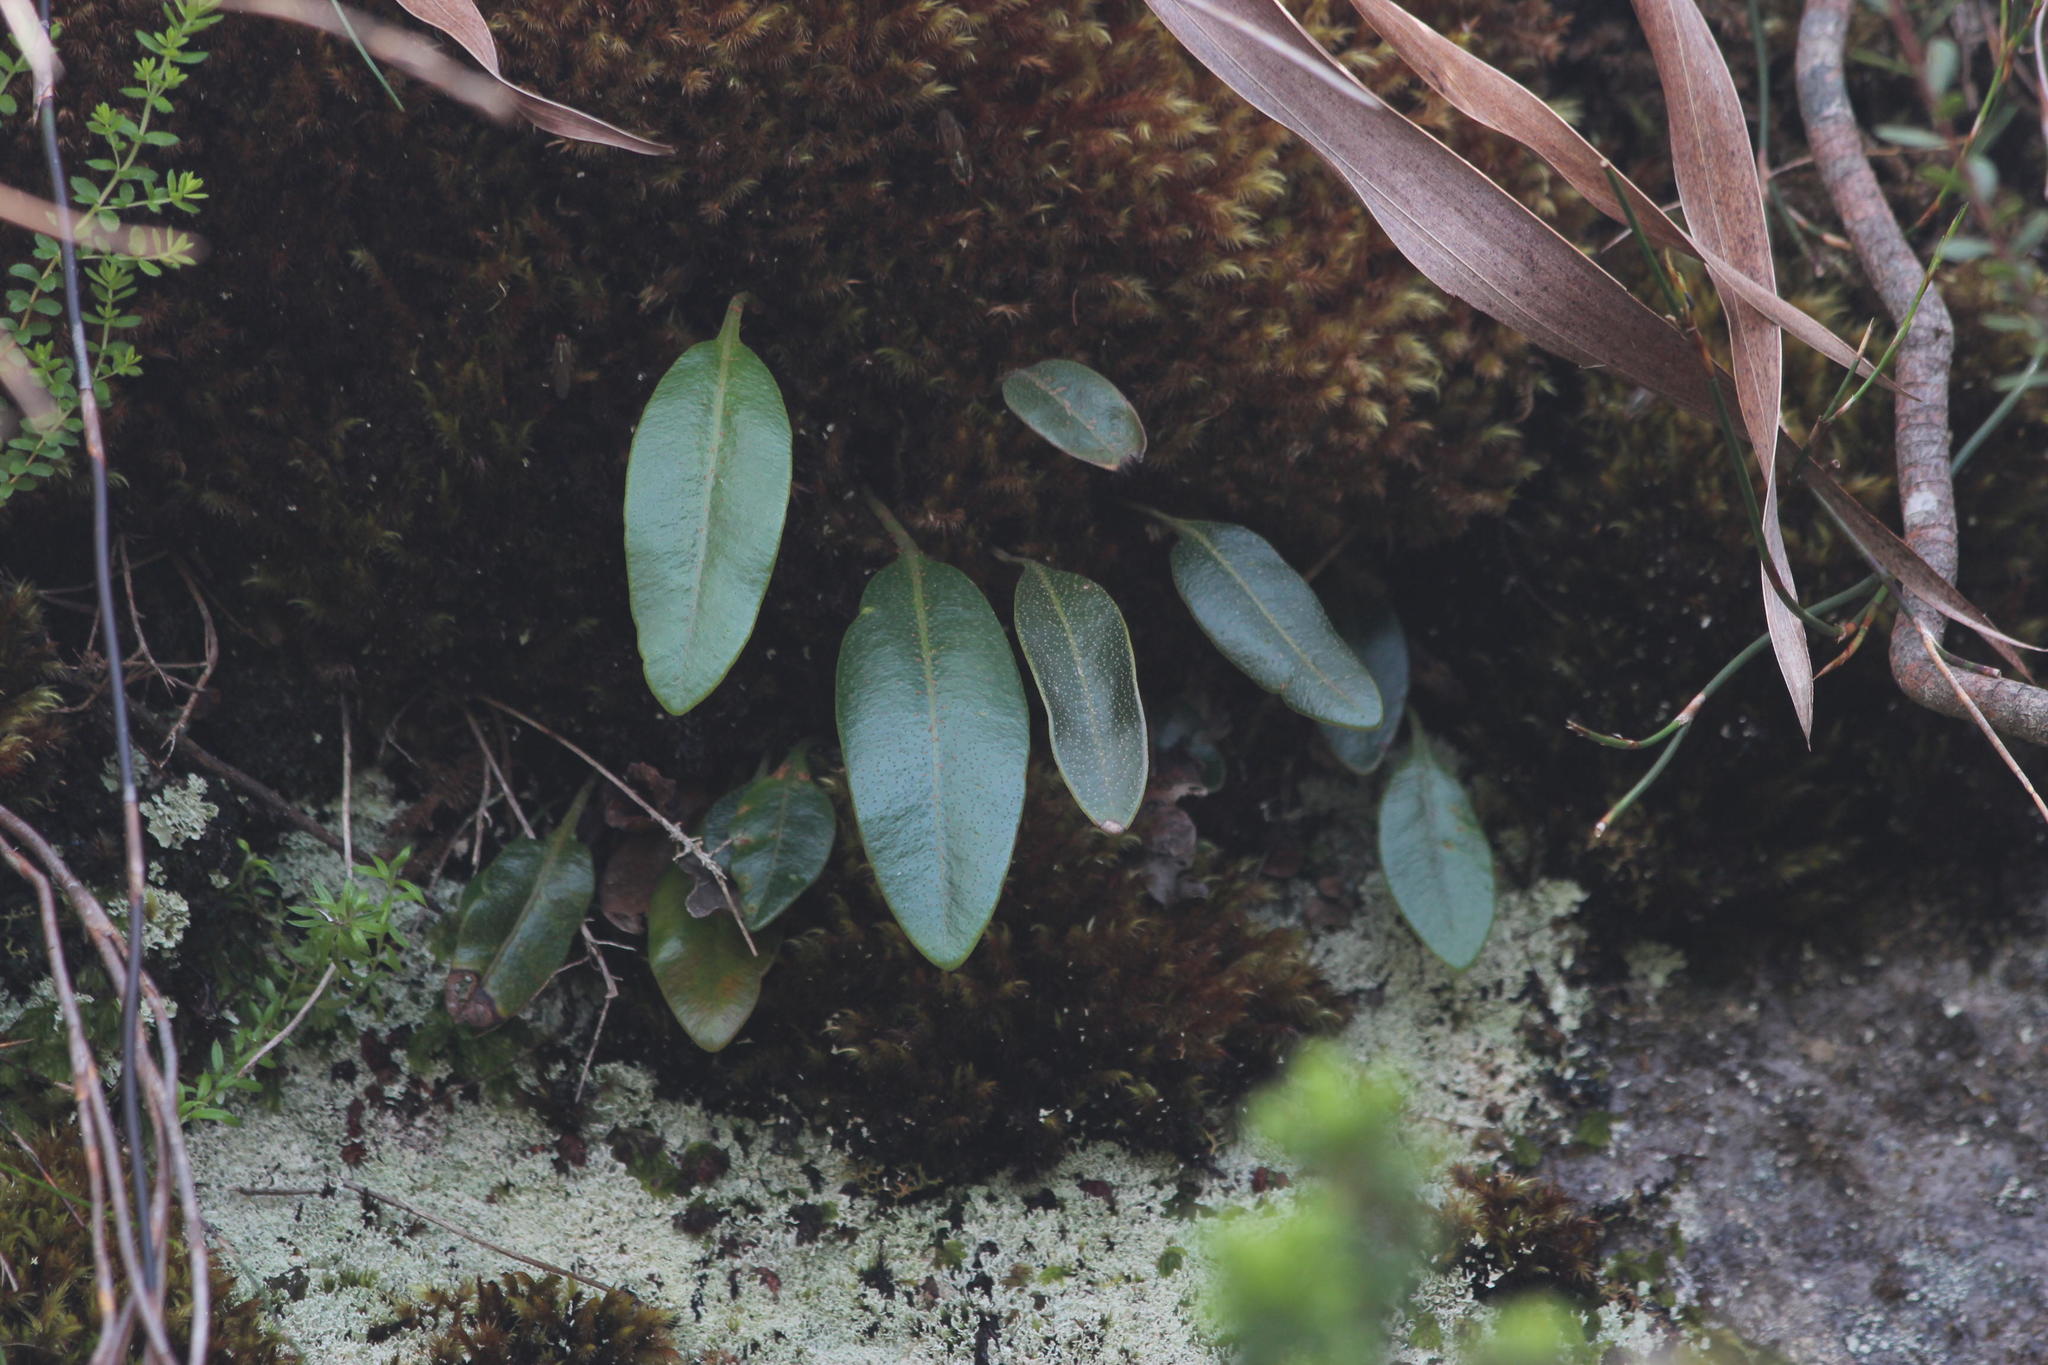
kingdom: Plantae
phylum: Tracheophyta
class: Liliopsida
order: Asparagales
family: Orchidaceae
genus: Disa
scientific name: Disa rosea
